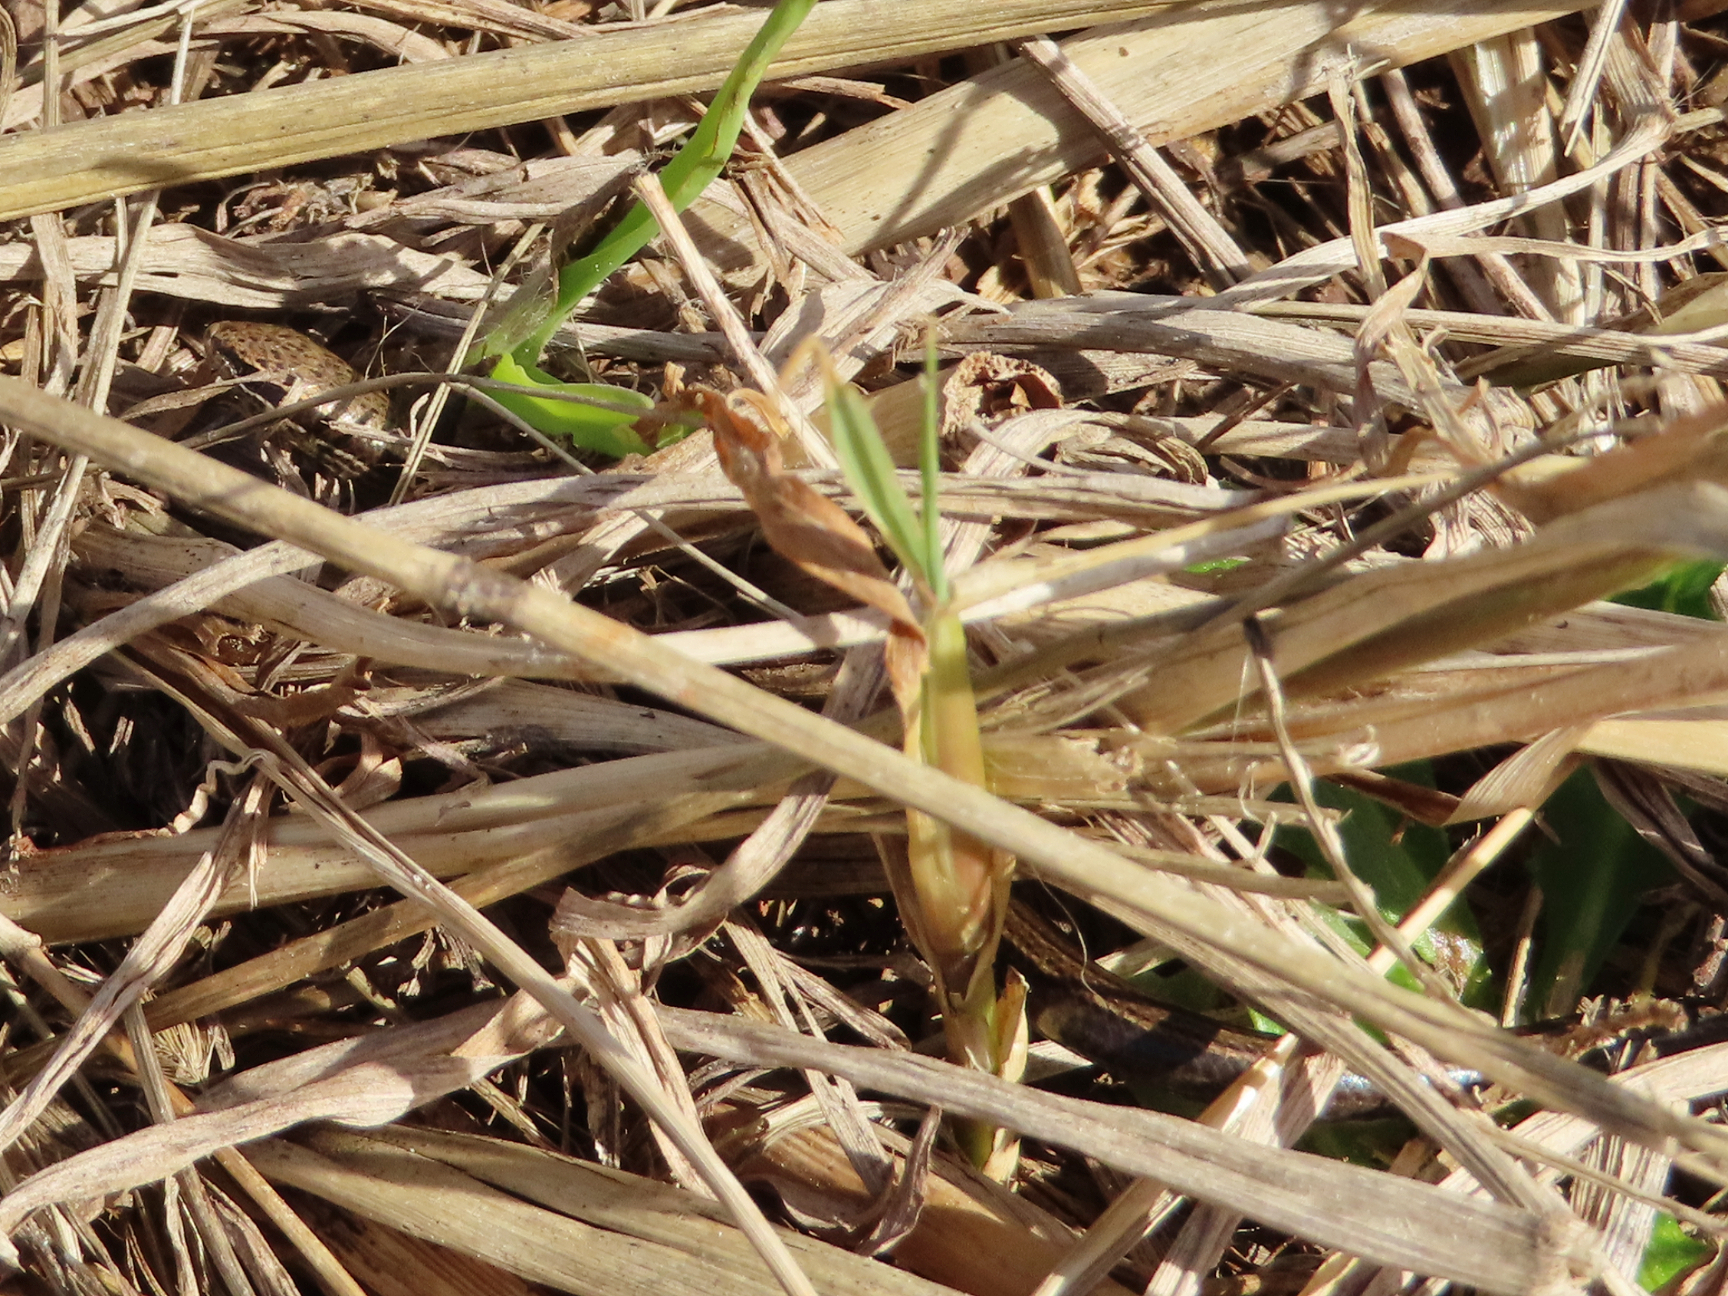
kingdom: Animalia
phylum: Chordata
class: Squamata
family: Scincidae
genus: Ablepharus
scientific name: Ablepharus kitaibelii
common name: Juniper skink
